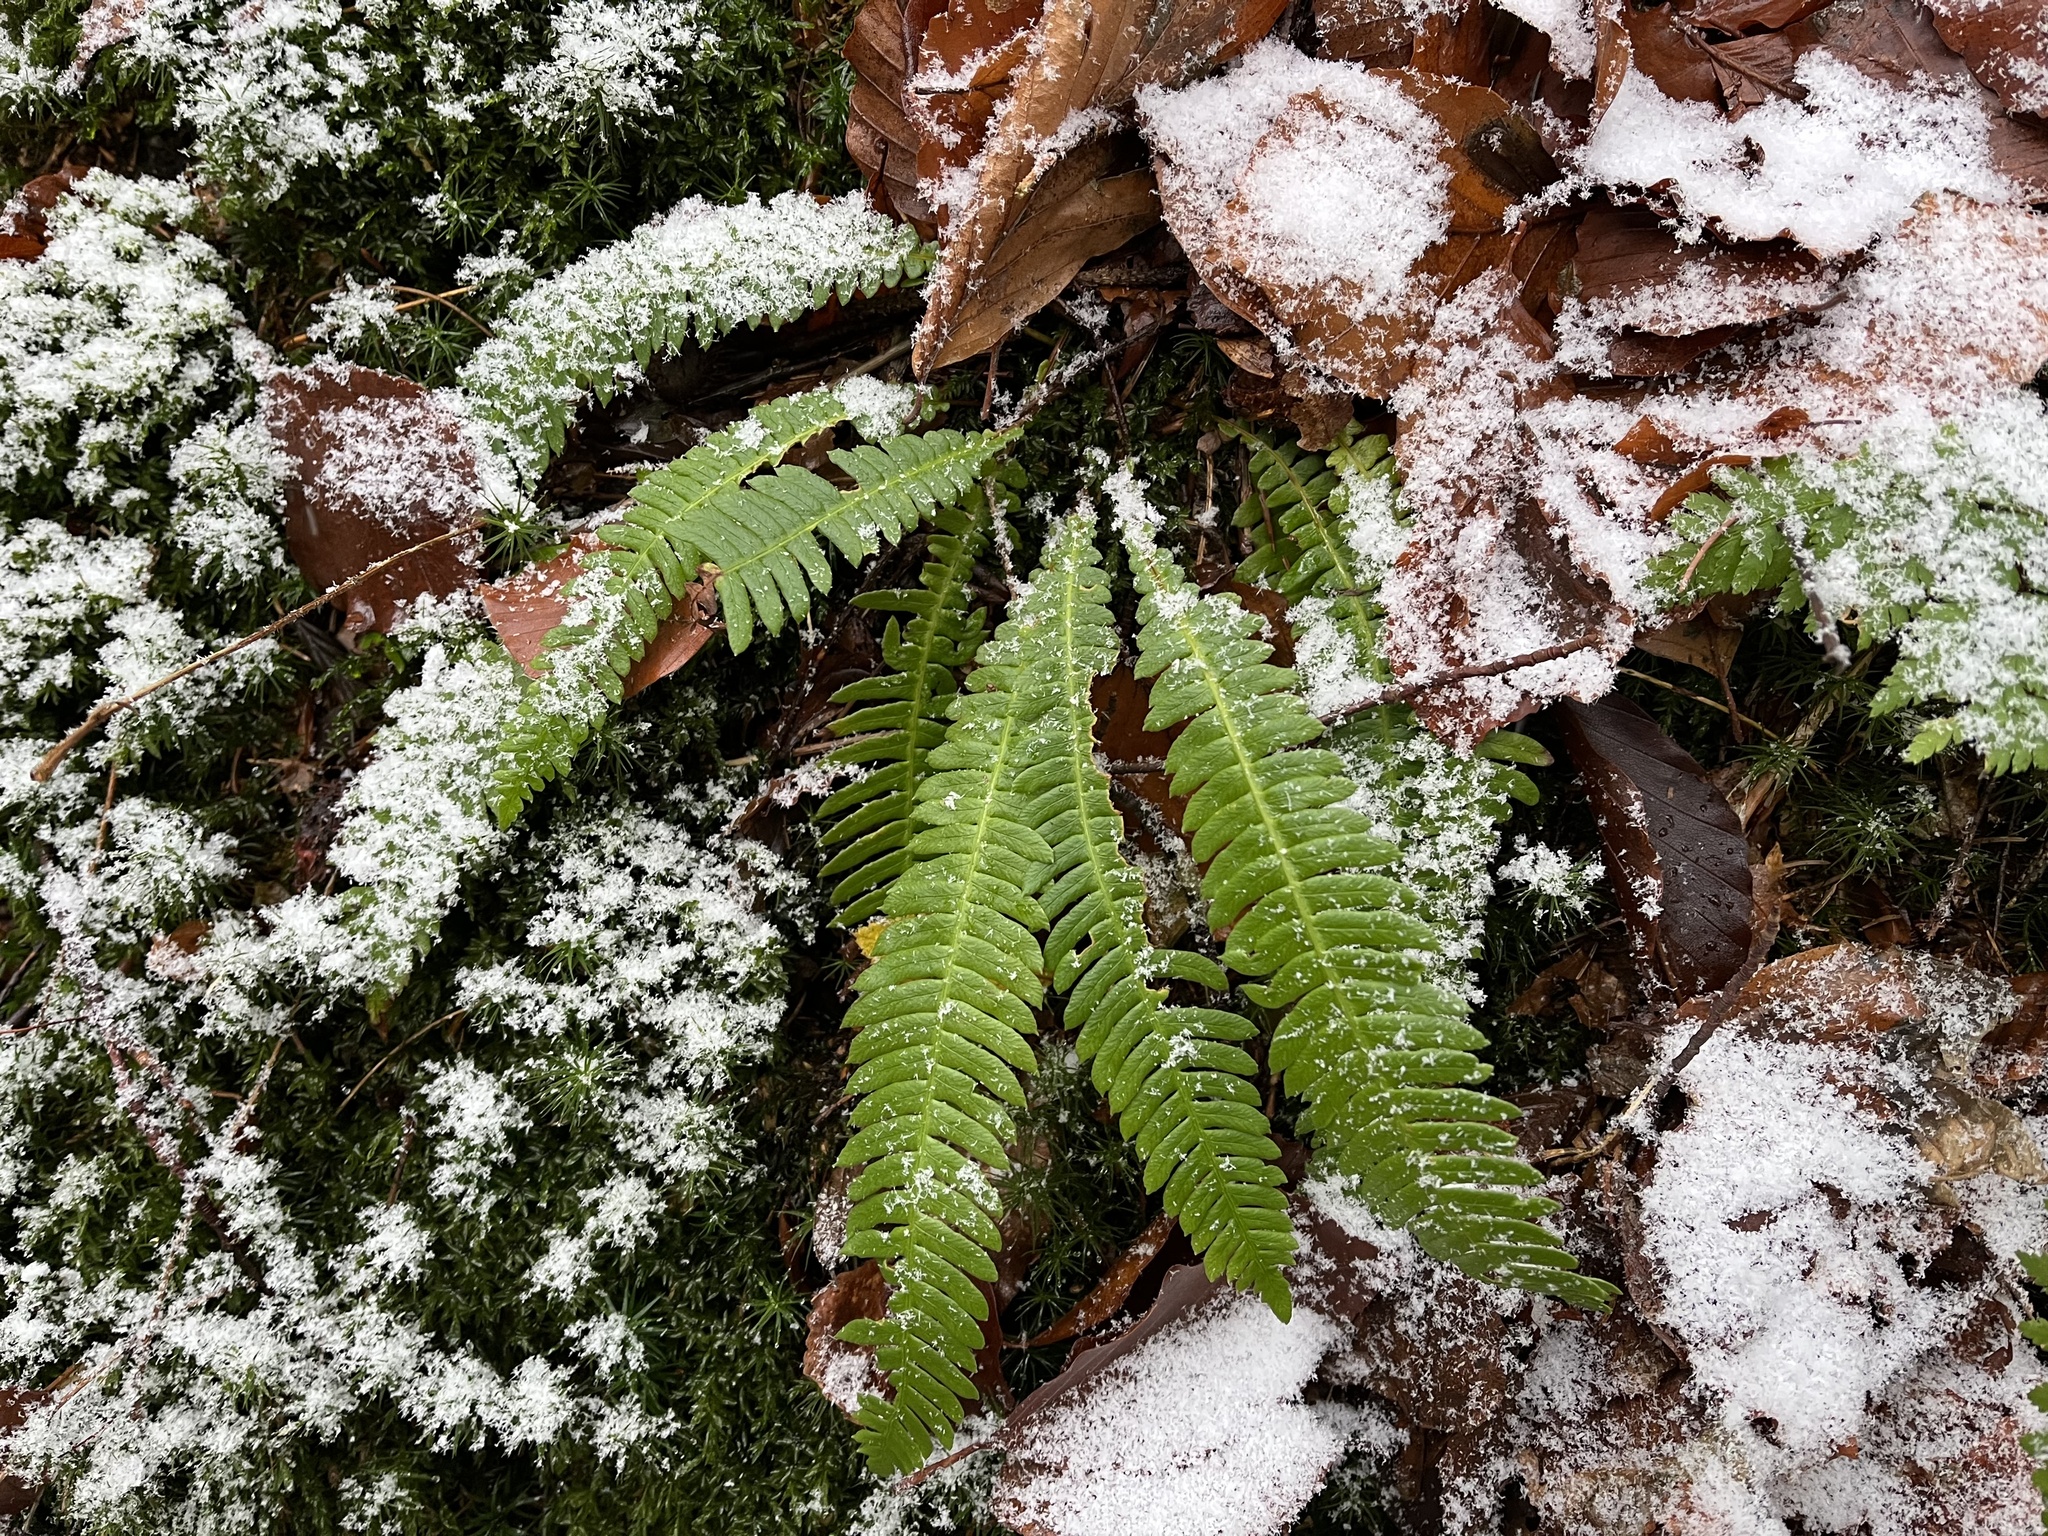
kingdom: Plantae
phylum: Tracheophyta
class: Polypodiopsida
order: Polypodiales
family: Blechnaceae
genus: Struthiopteris
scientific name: Struthiopteris spicant
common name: Deer fern
